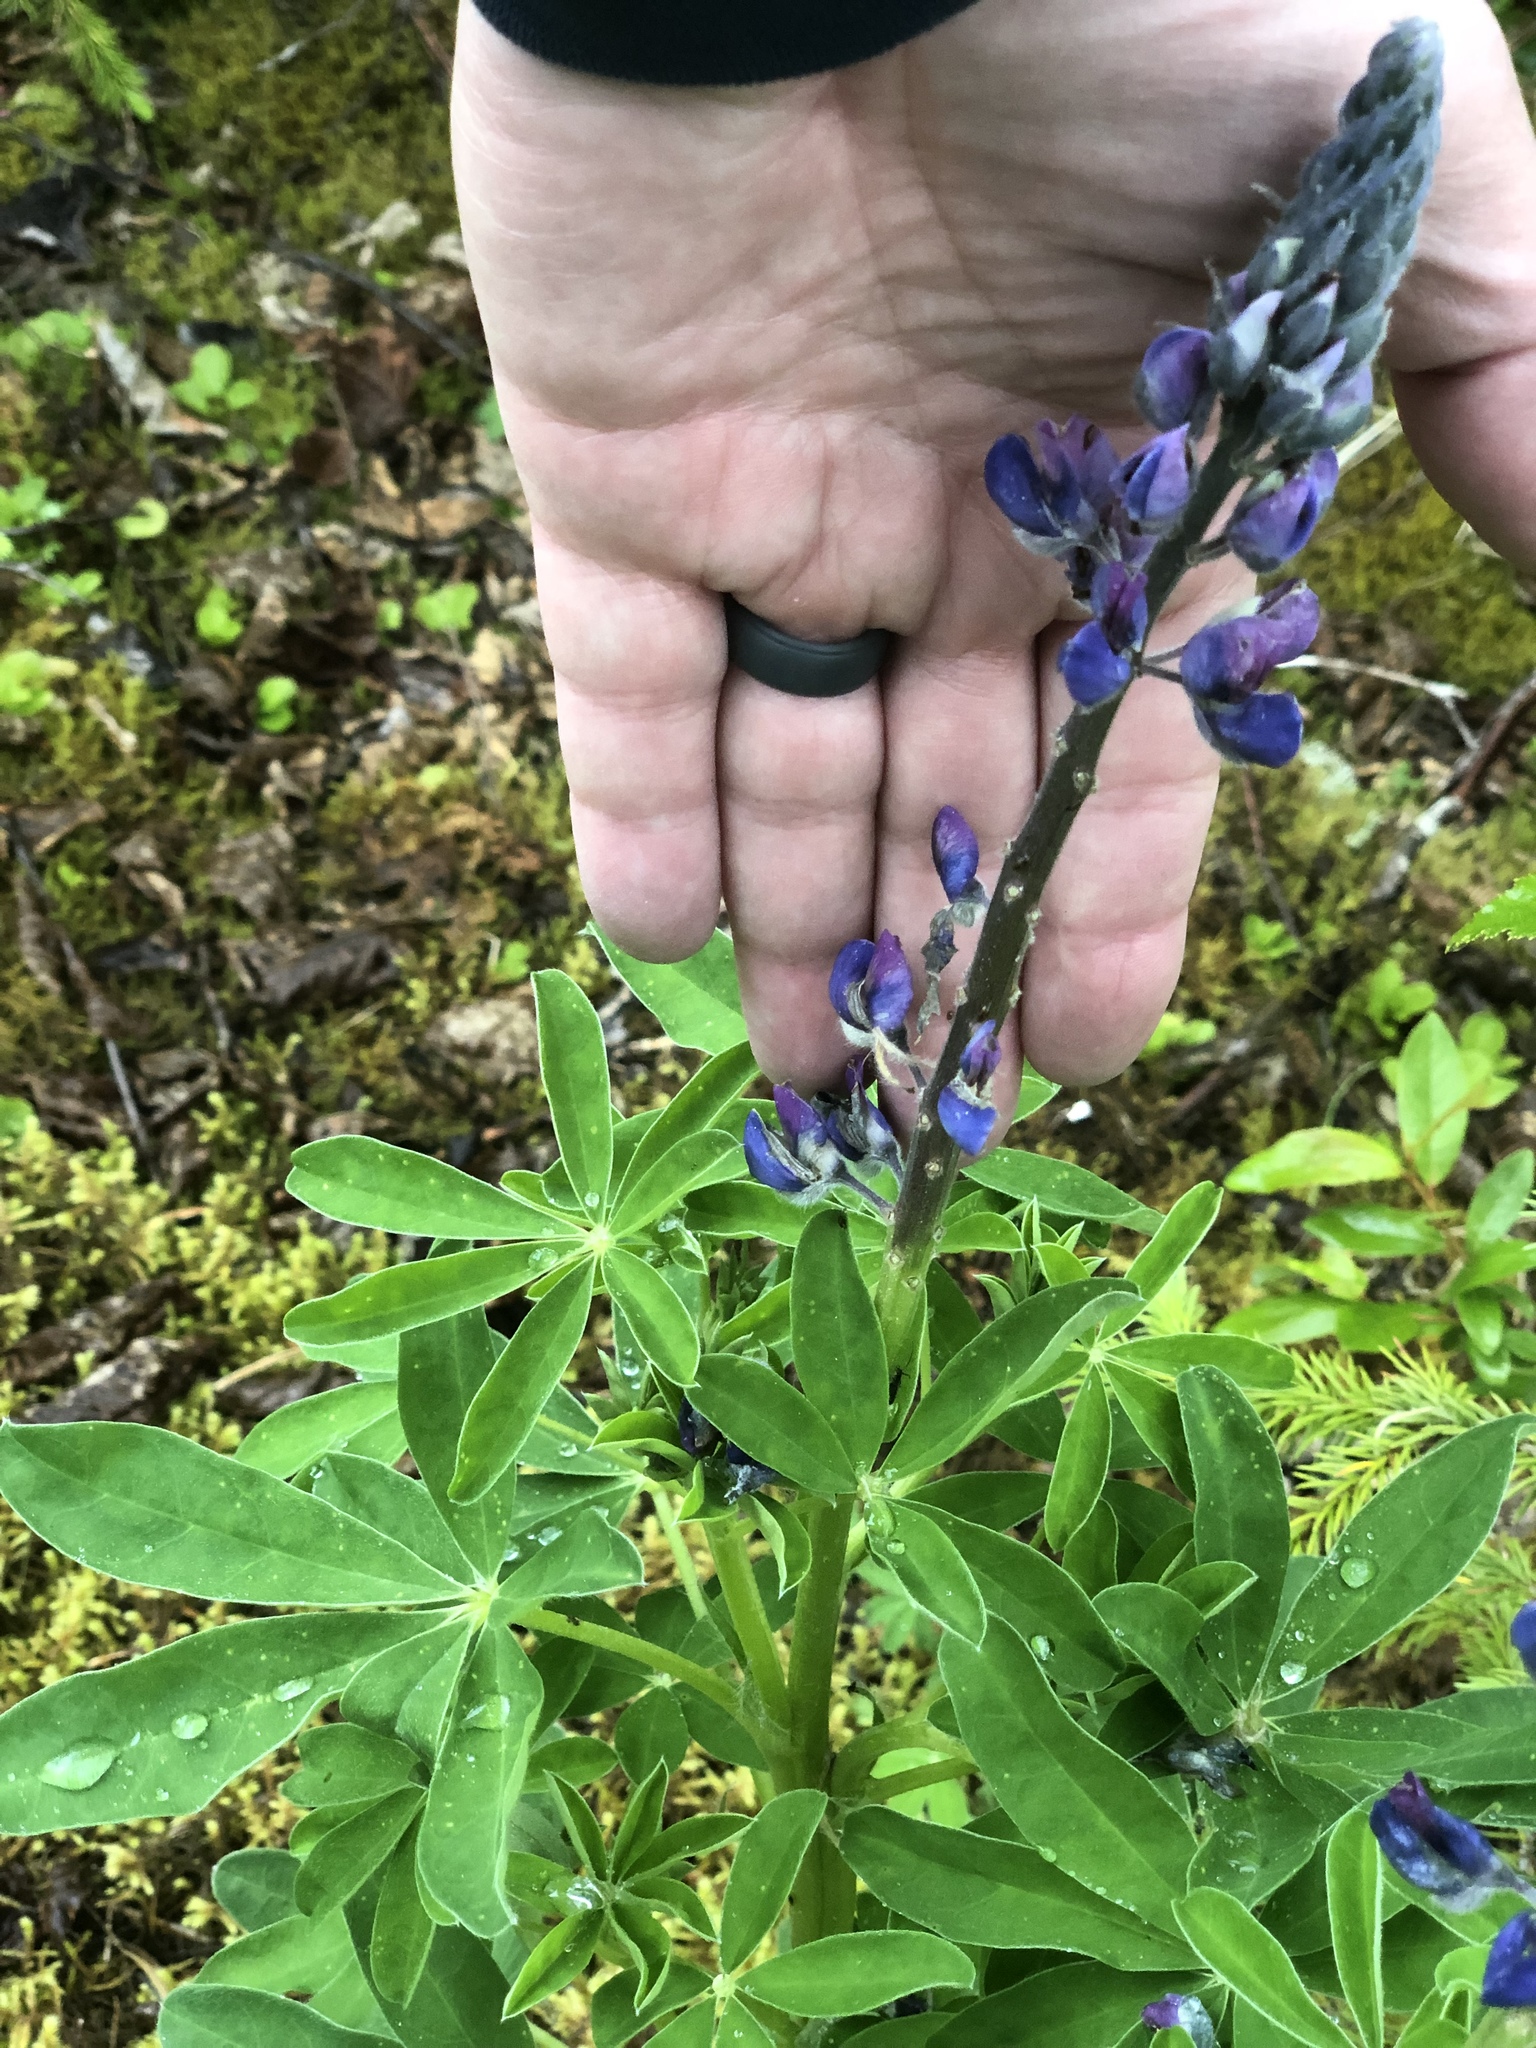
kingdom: Plantae
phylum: Tracheophyta
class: Magnoliopsida
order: Fabales
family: Fabaceae
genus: Lupinus
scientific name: Lupinus nootkatensis
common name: Nootka lupine
